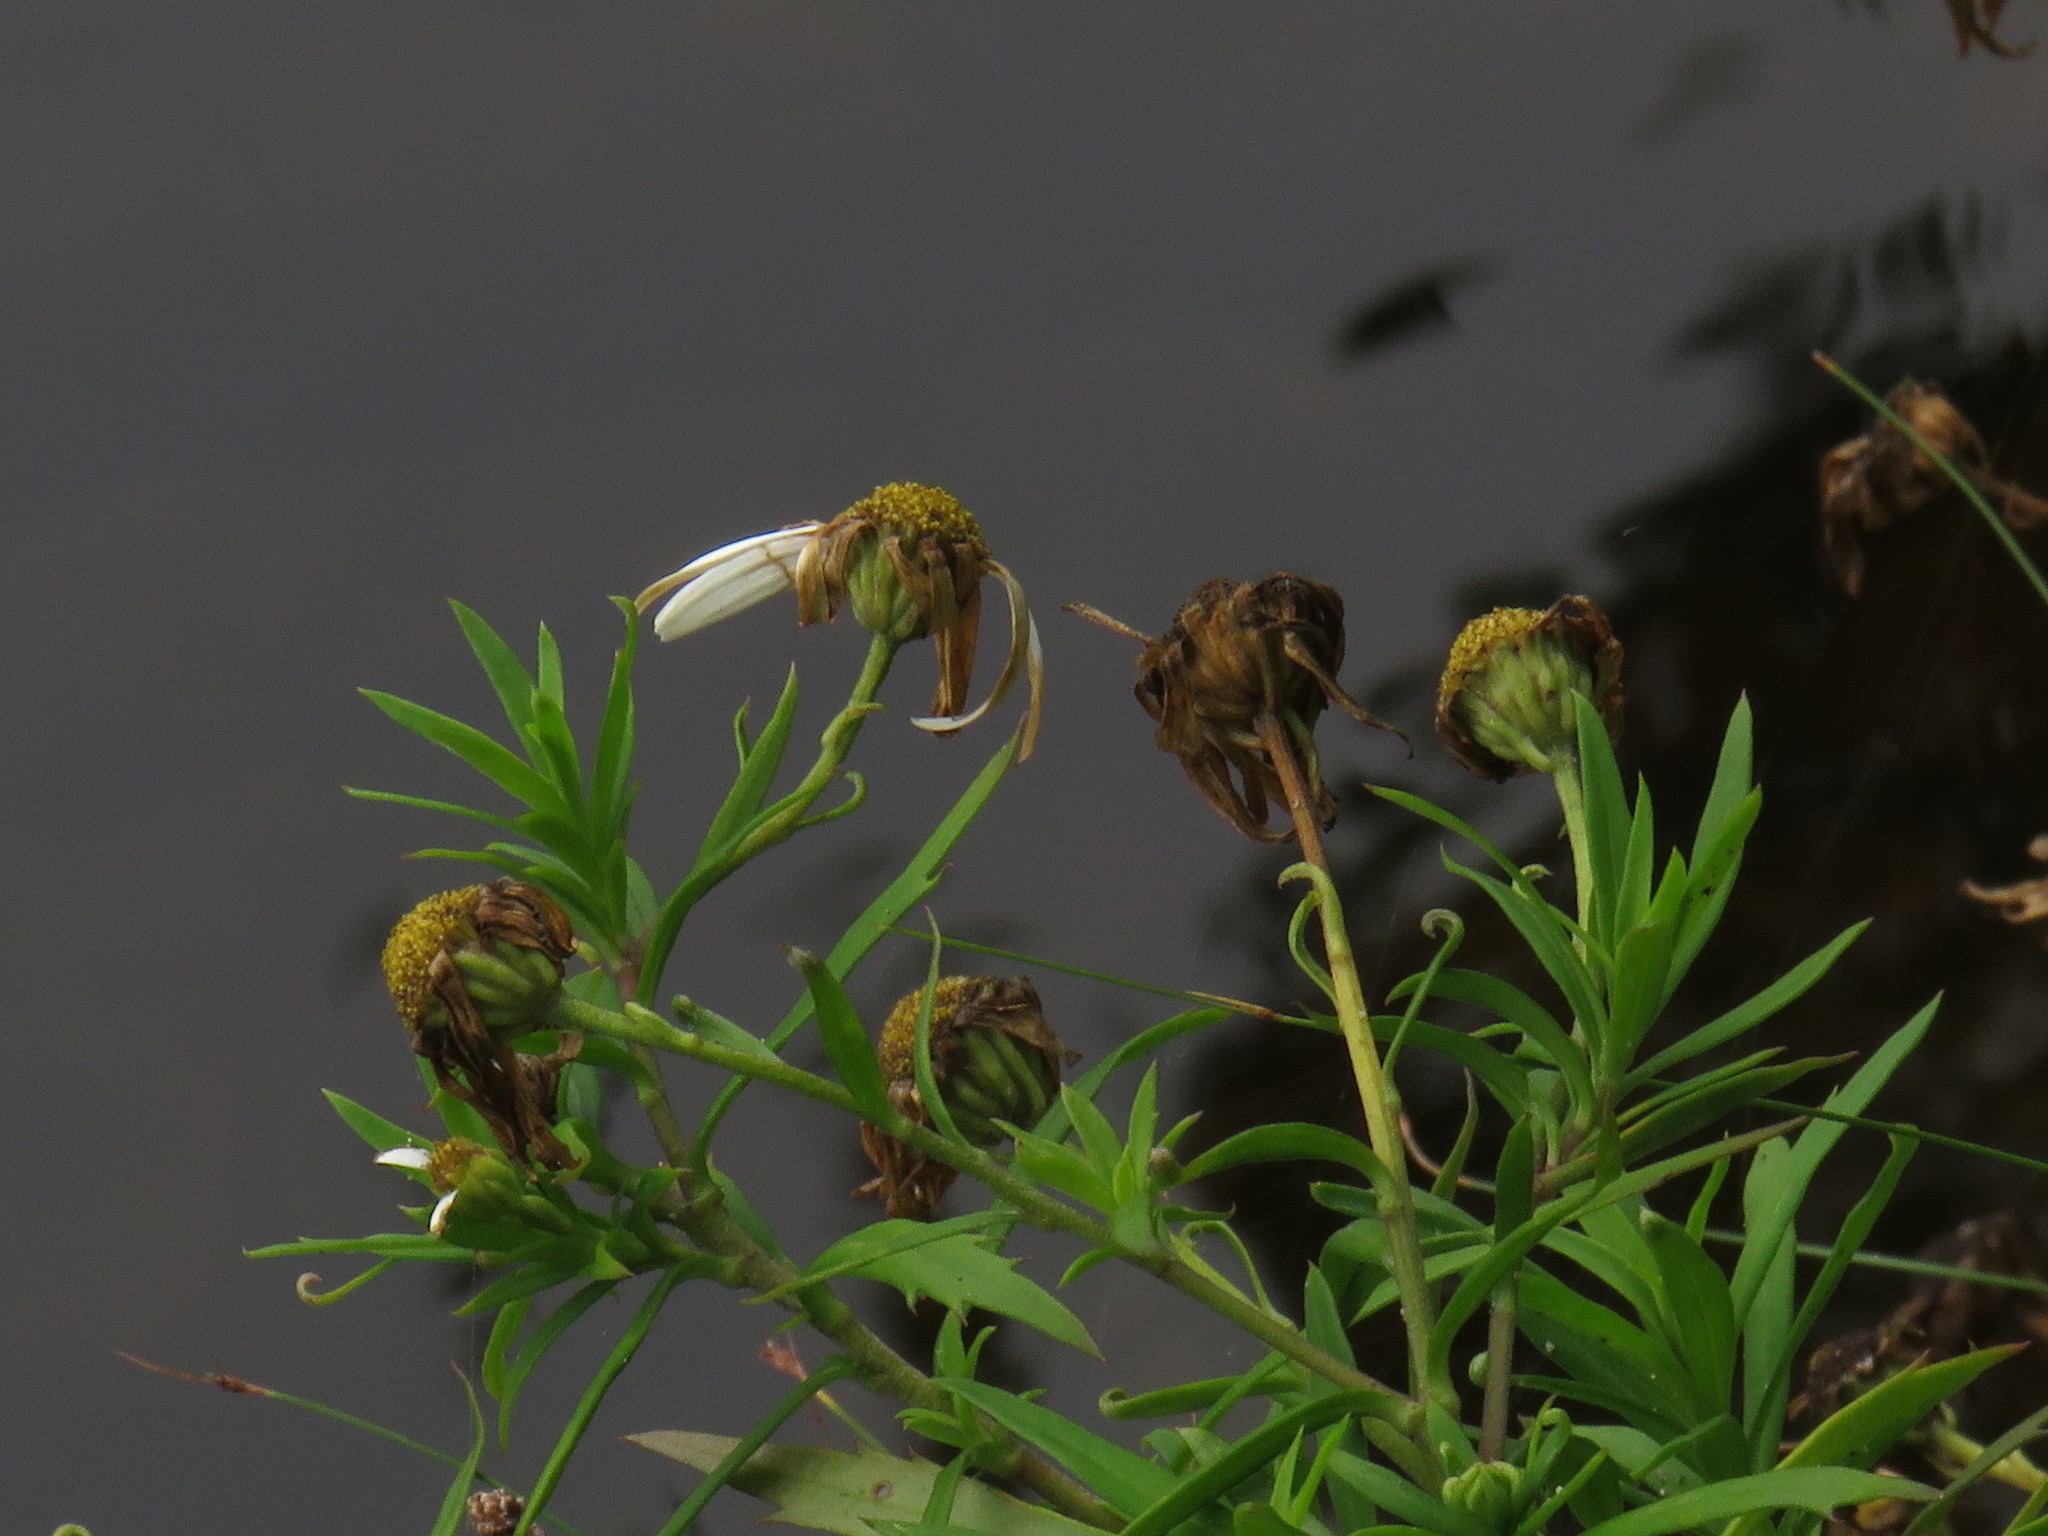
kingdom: Plantae
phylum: Tracheophyta
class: Magnoliopsida
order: Asterales
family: Asteraceae
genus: Osmitopsis
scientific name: Osmitopsis osmitoides
